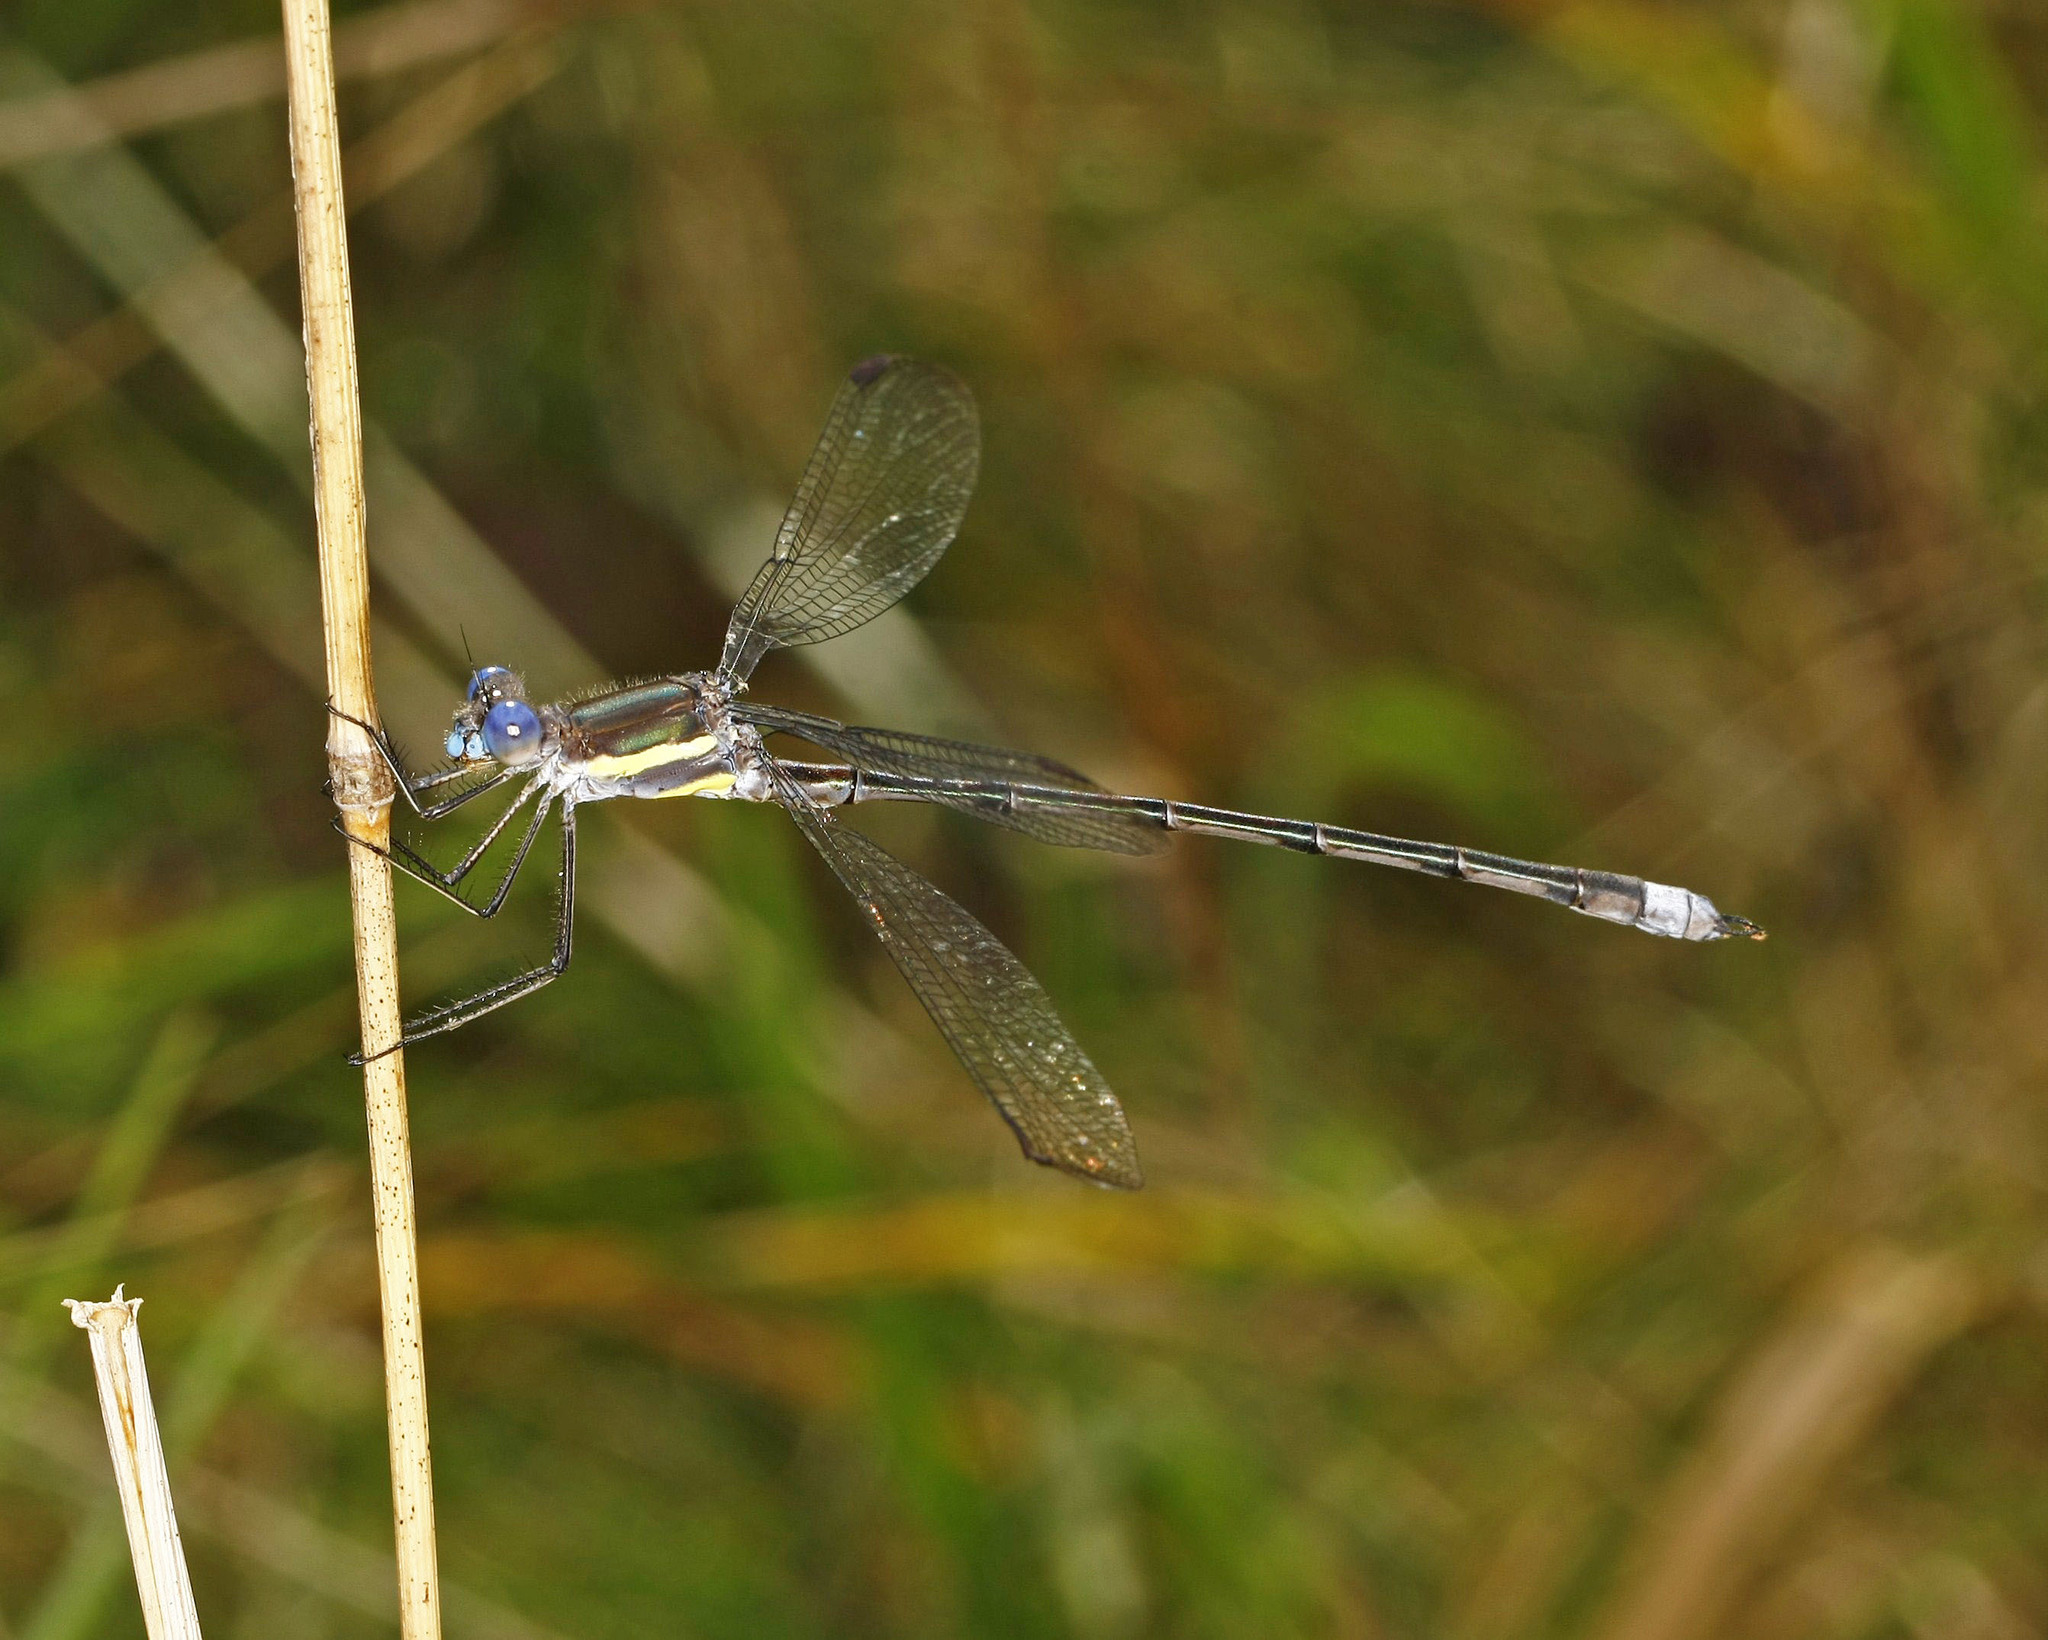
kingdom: Animalia
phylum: Arthropoda
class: Insecta
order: Odonata
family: Lestidae
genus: Archilestes
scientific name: Archilestes grandis
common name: Great spreadwing
